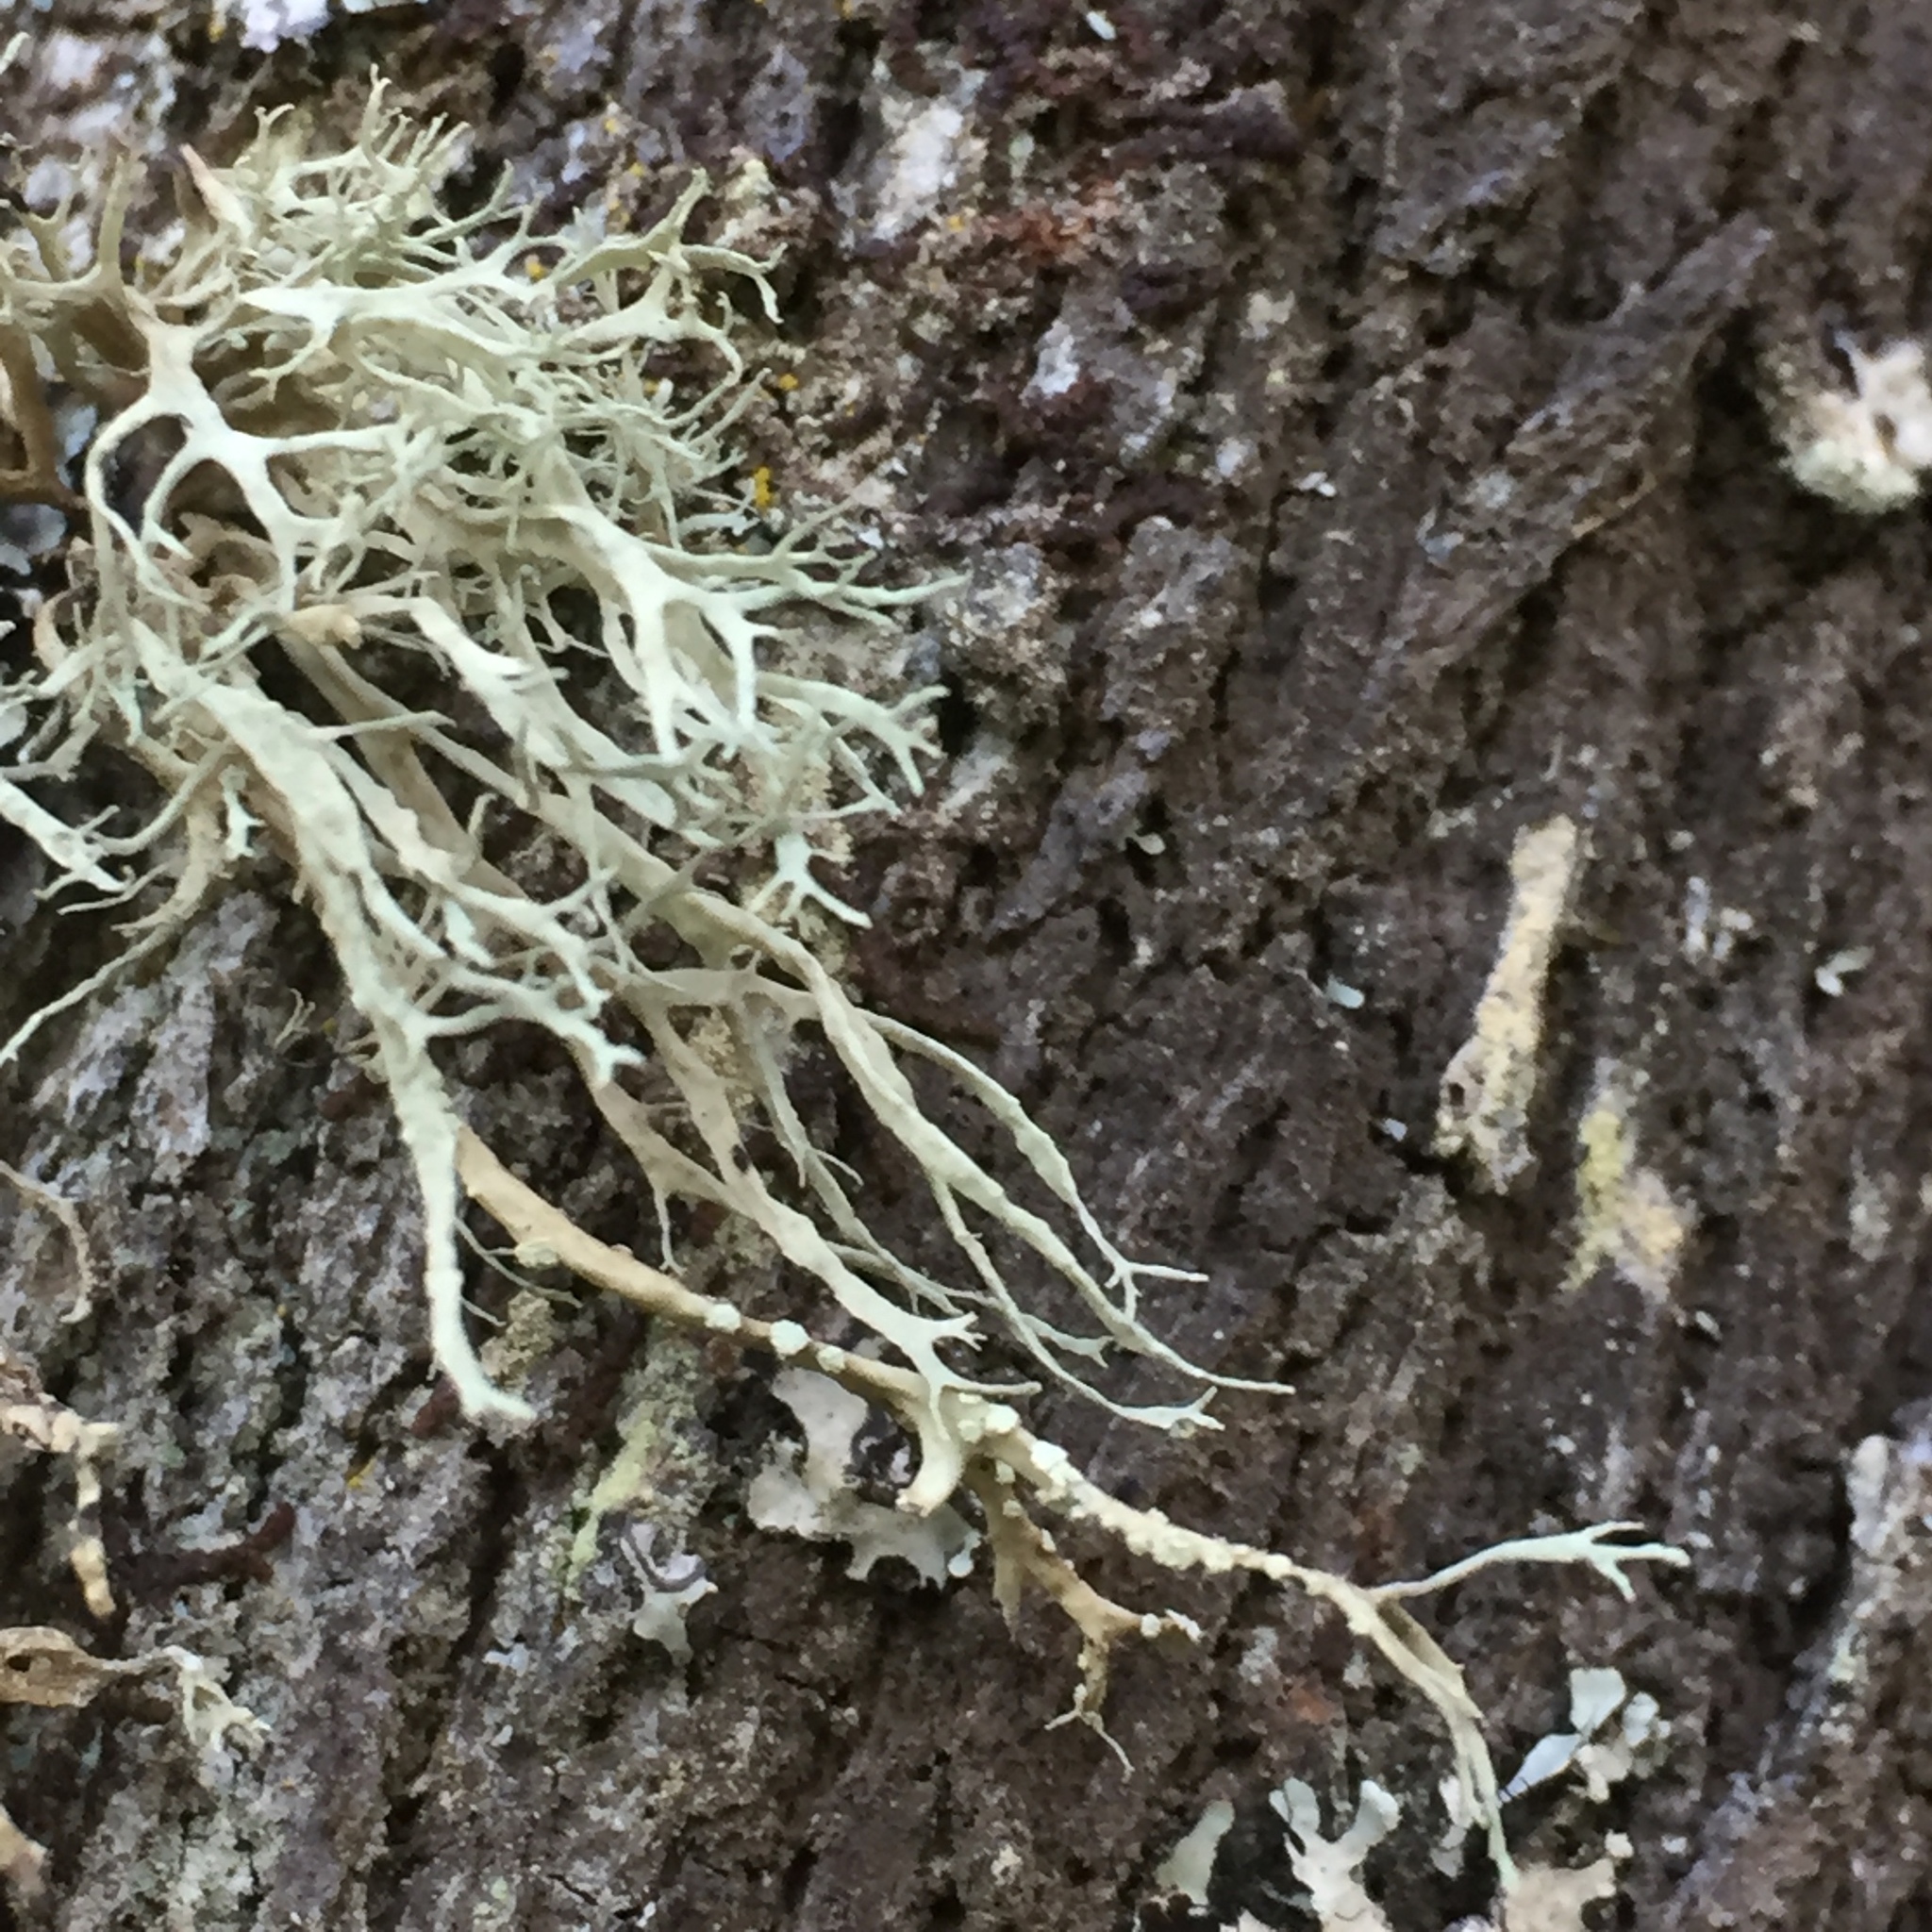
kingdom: Fungi
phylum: Ascomycota
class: Lecanoromycetes
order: Lecanorales
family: Ramalinaceae
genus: Ramalina
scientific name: Ramalina farinacea
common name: Farinose cartilage lichen
